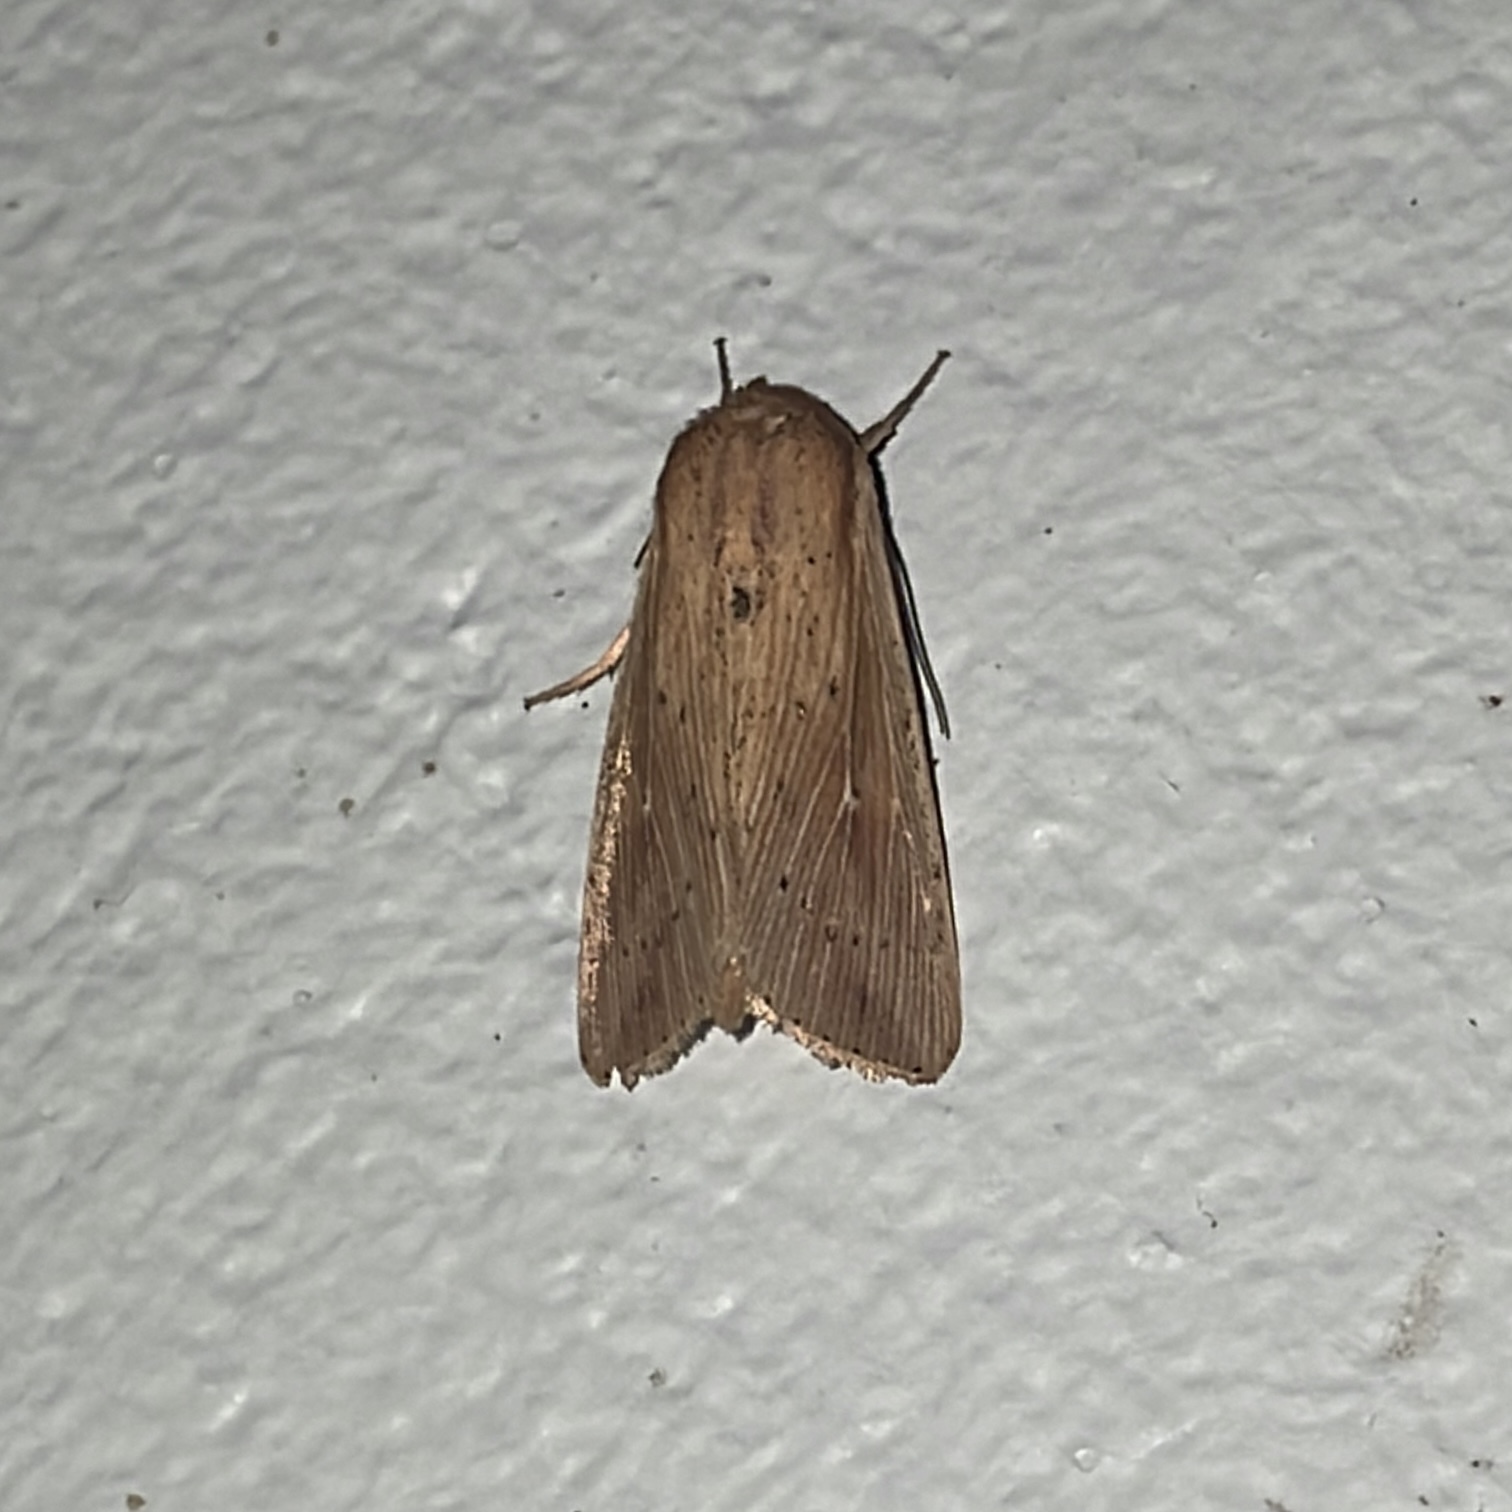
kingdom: Animalia
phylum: Arthropoda
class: Insecta
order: Lepidoptera
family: Noctuidae
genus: Leucania
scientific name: Leucania senescens
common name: Cutworm moth
